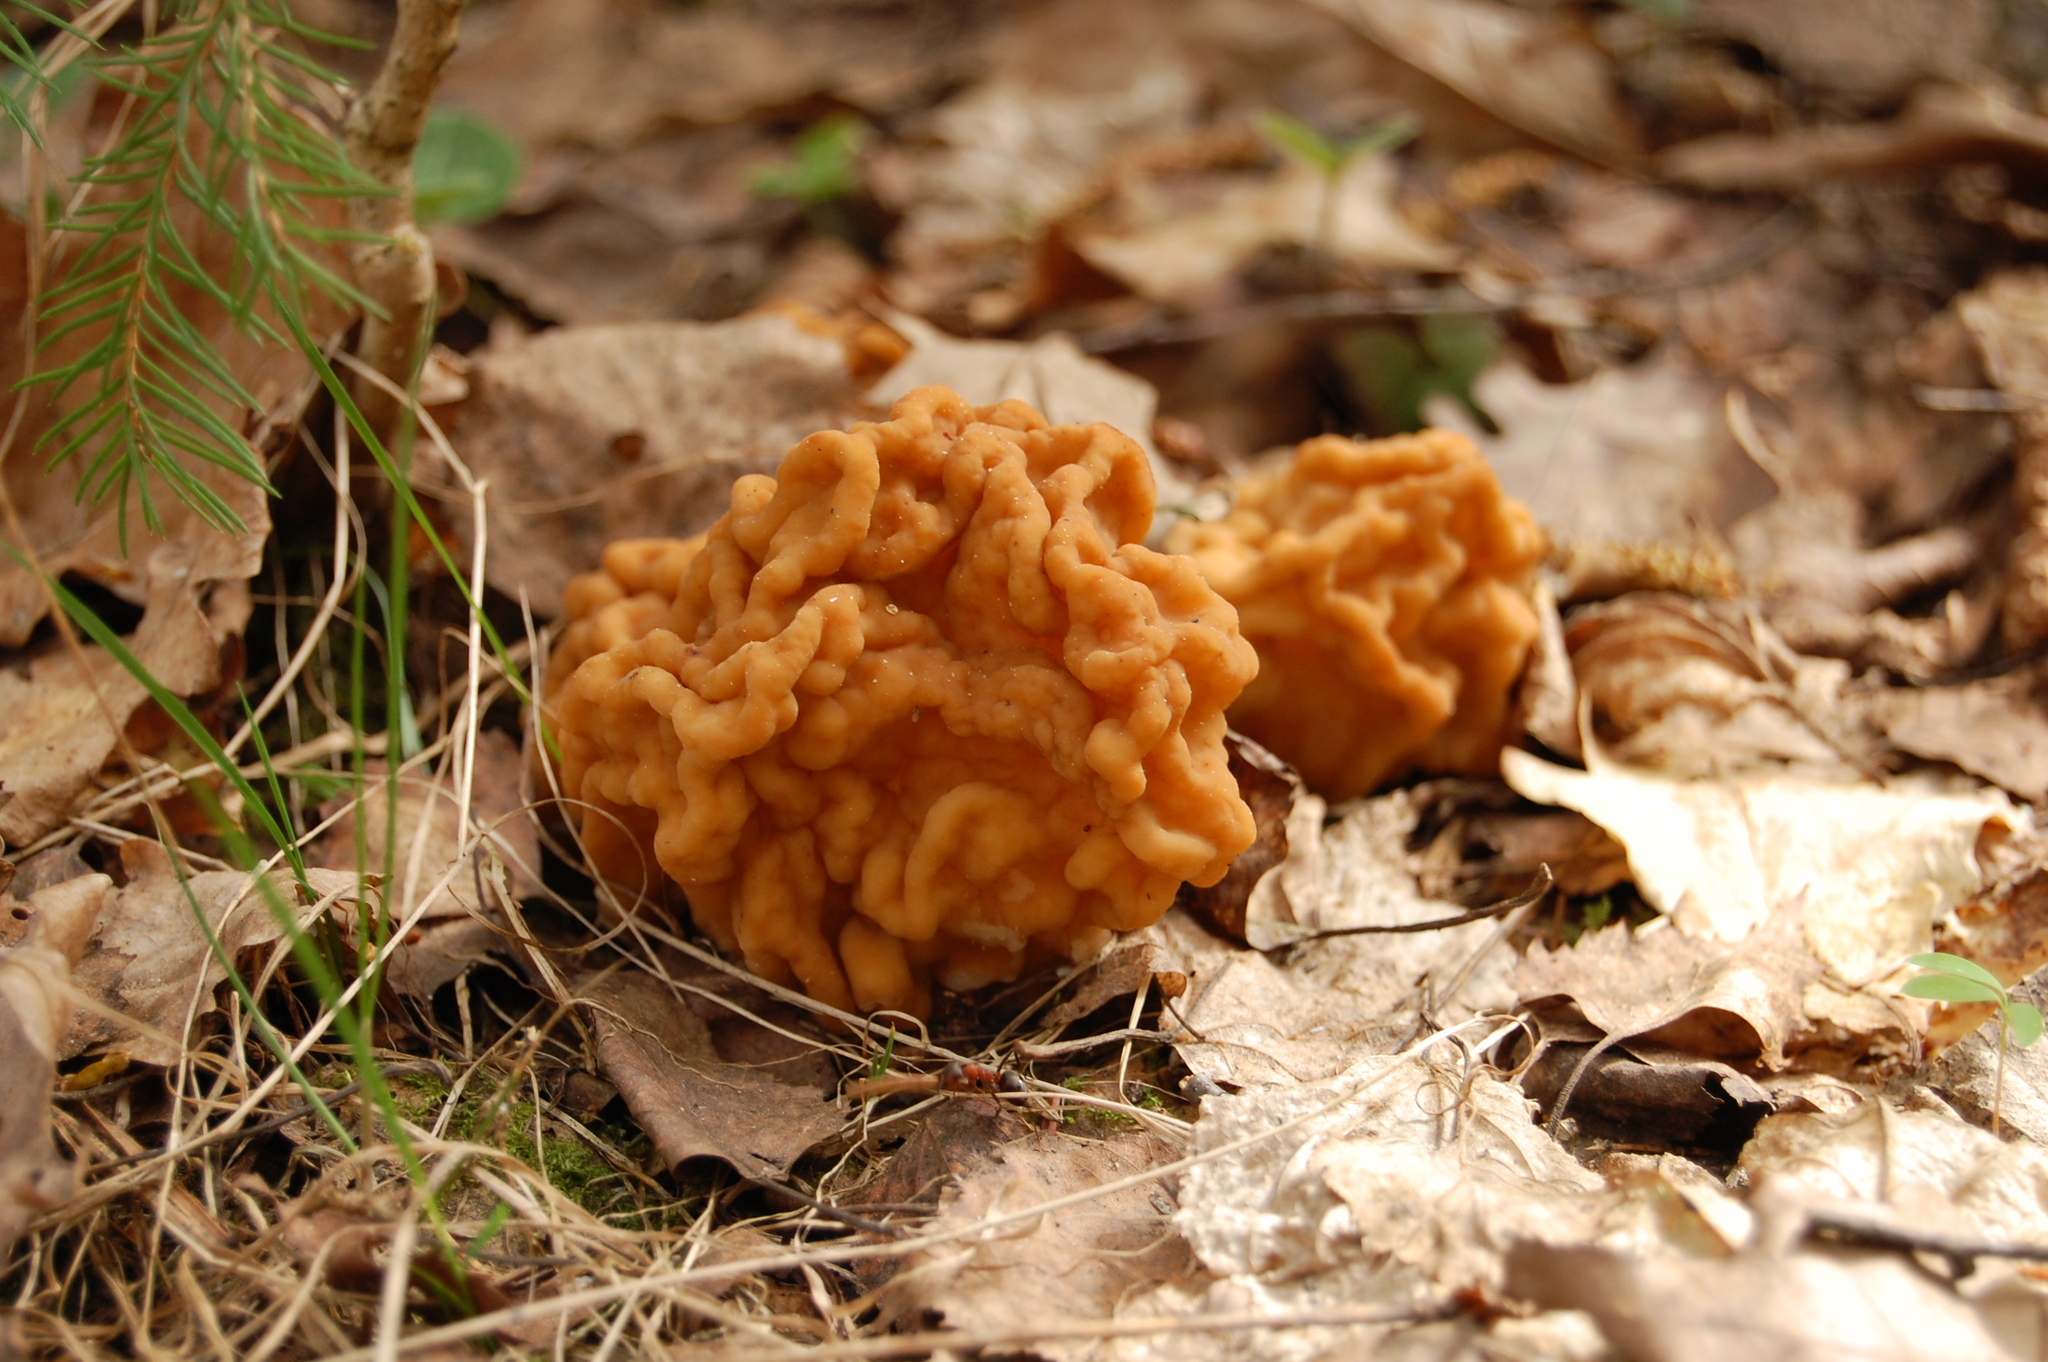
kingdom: Fungi
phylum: Ascomycota
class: Pezizomycetes
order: Pezizales
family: Discinaceae
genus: Gyromitra
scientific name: Gyromitra gigas
